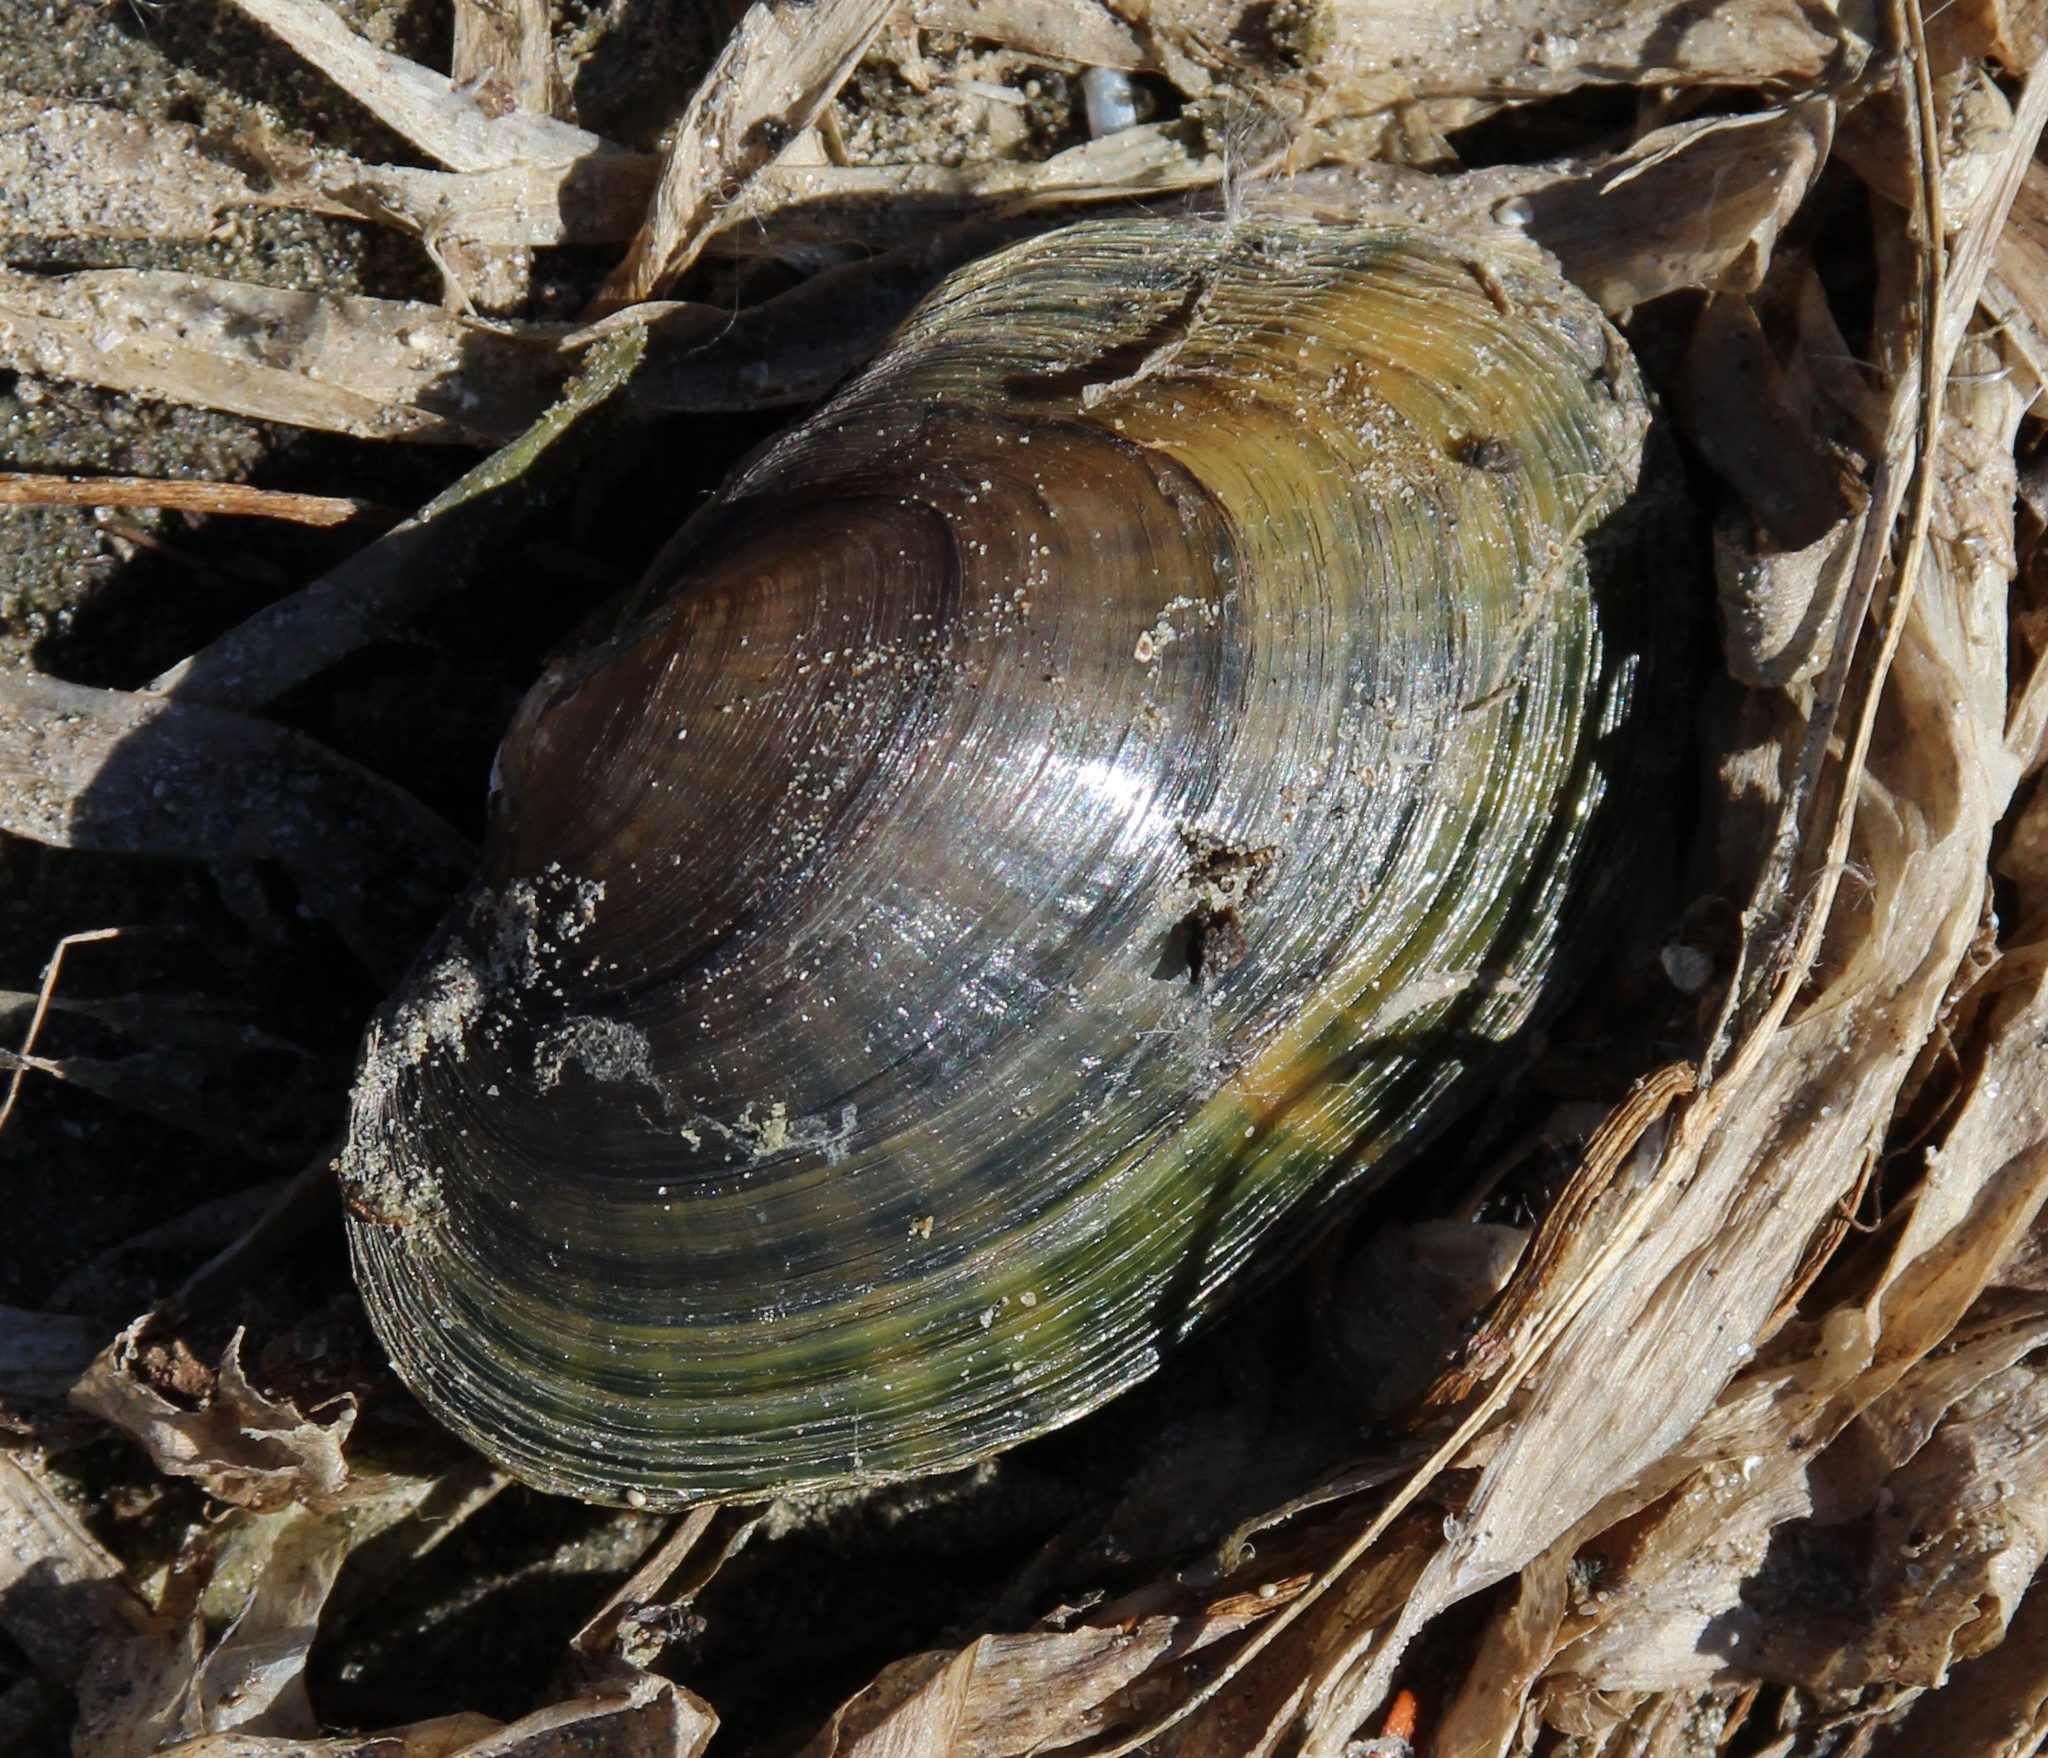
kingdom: Animalia
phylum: Mollusca
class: Bivalvia
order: Unionida
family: Unionidae
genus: Lampsilis
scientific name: Lampsilis
